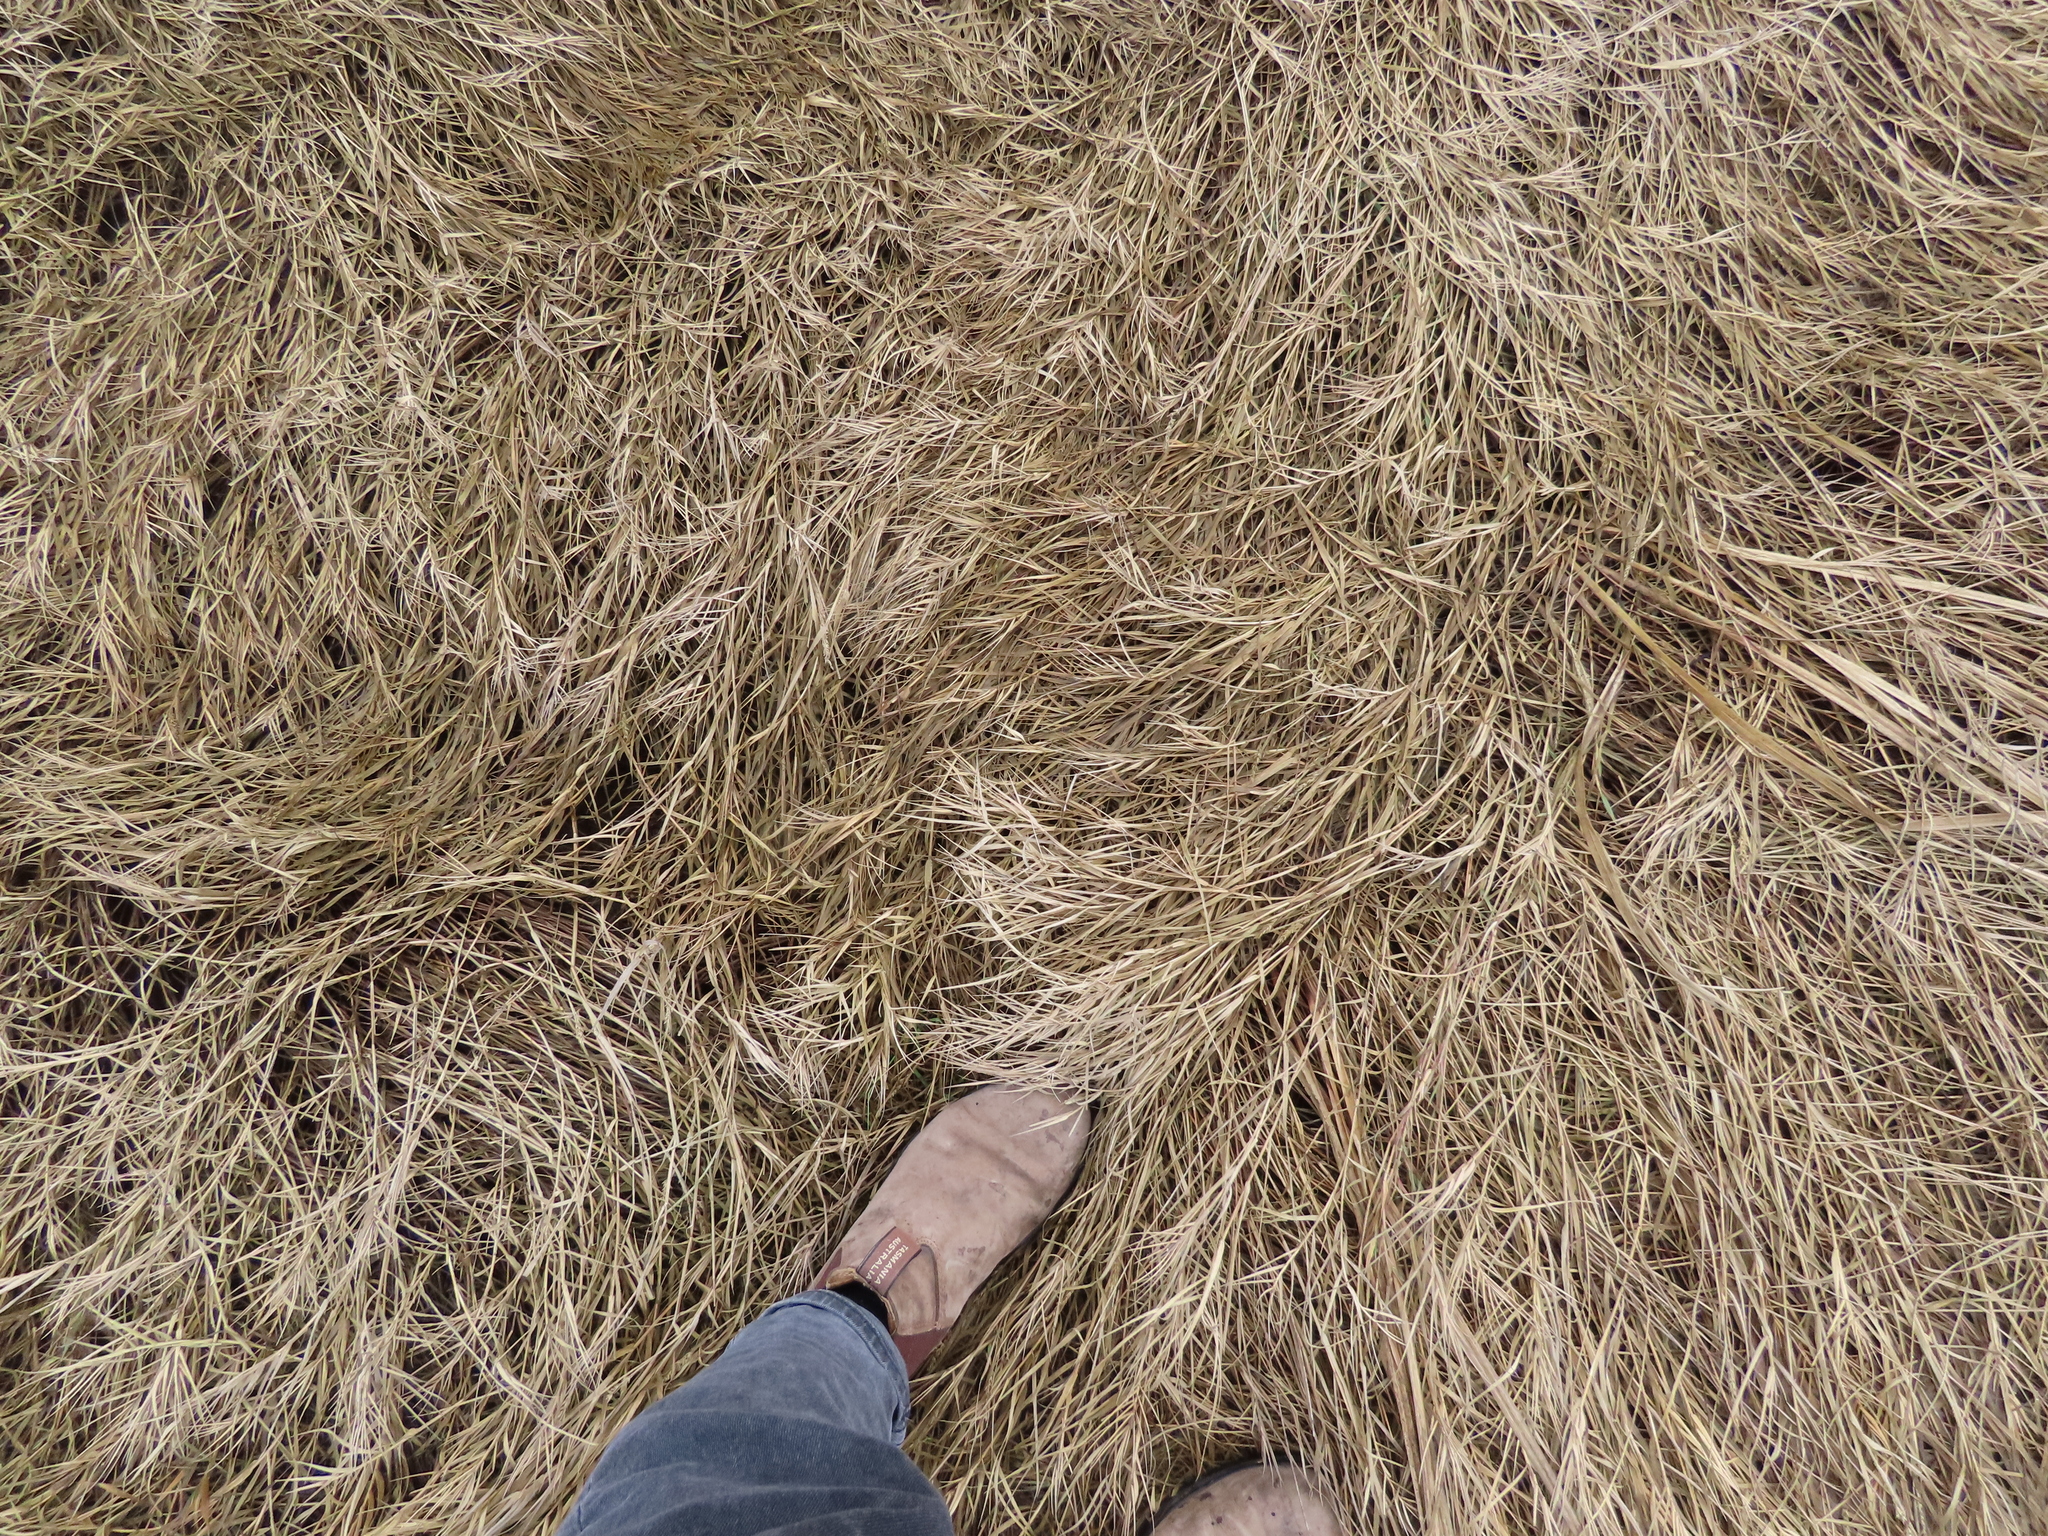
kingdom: Plantae
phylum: Tracheophyta
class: Liliopsida
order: Poales
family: Poaceae
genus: Distichlis
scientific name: Distichlis spicata
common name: Saltgrass
